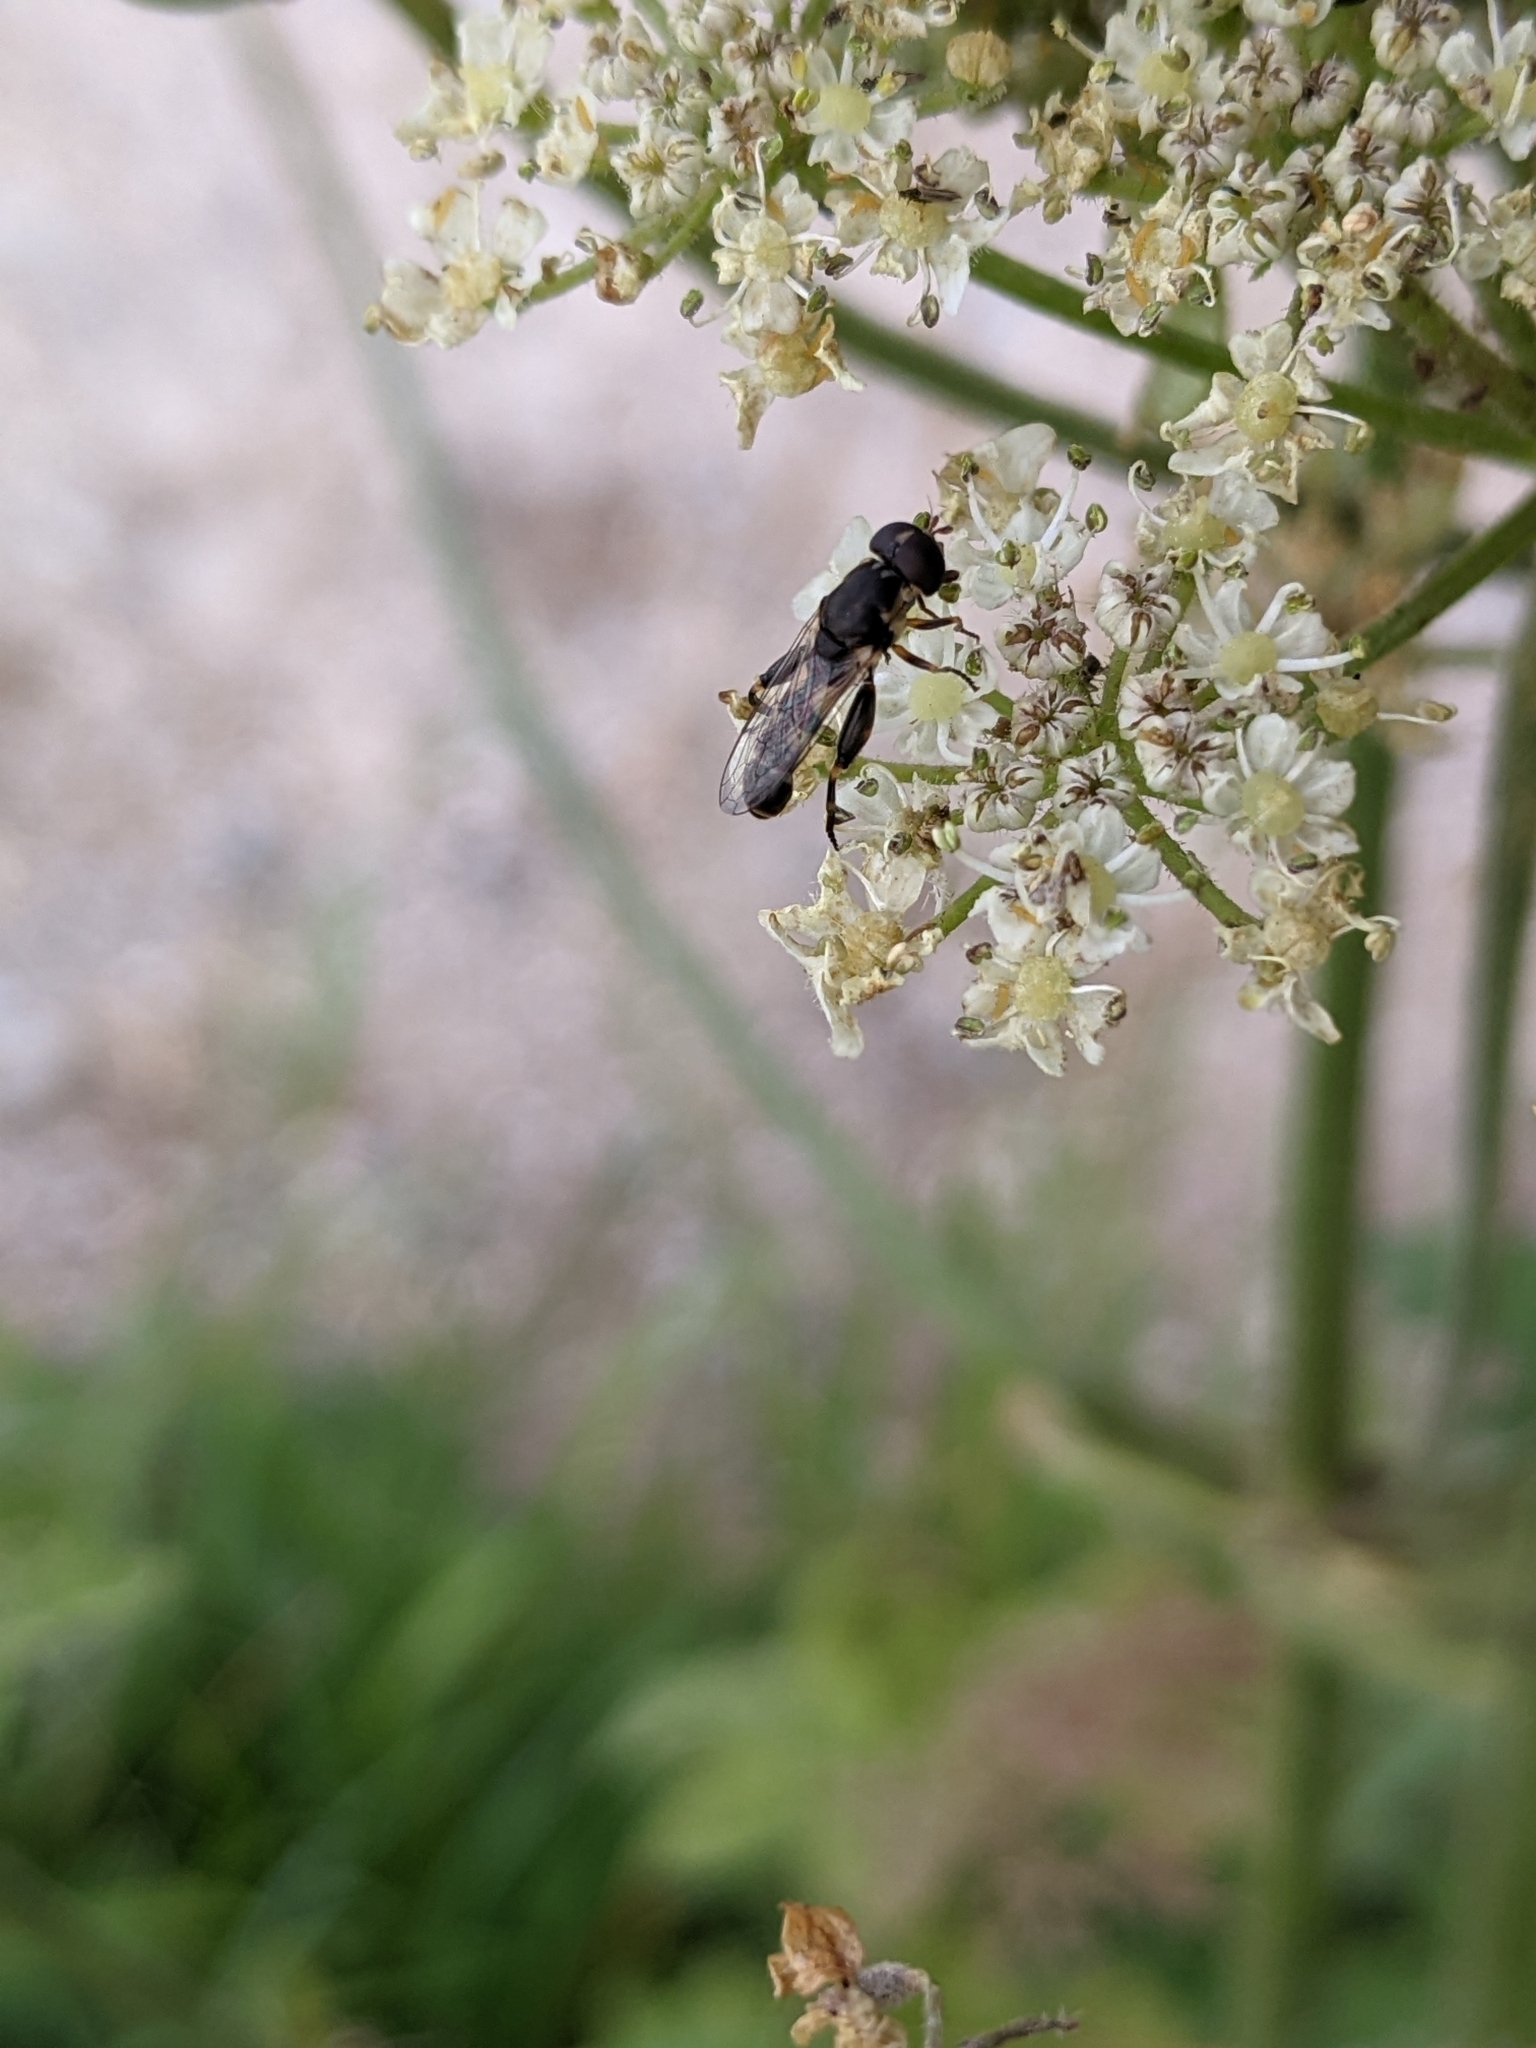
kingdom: Animalia
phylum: Arthropoda
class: Insecta
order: Diptera
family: Syrphidae
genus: Syritta
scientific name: Syritta pipiens
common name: Hover fly
